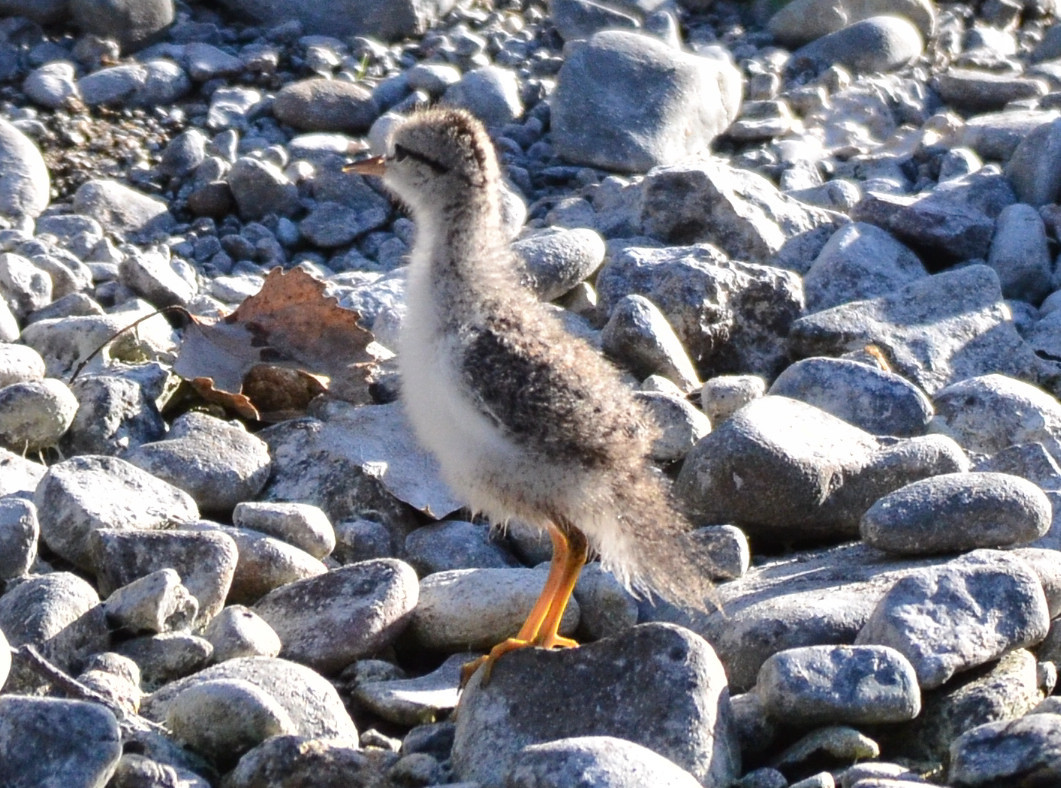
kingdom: Animalia
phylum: Chordata
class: Aves
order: Charadriiformes
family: Scolopacidae
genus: Actitis
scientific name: Actitis macularius
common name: Spotted sandpiper
